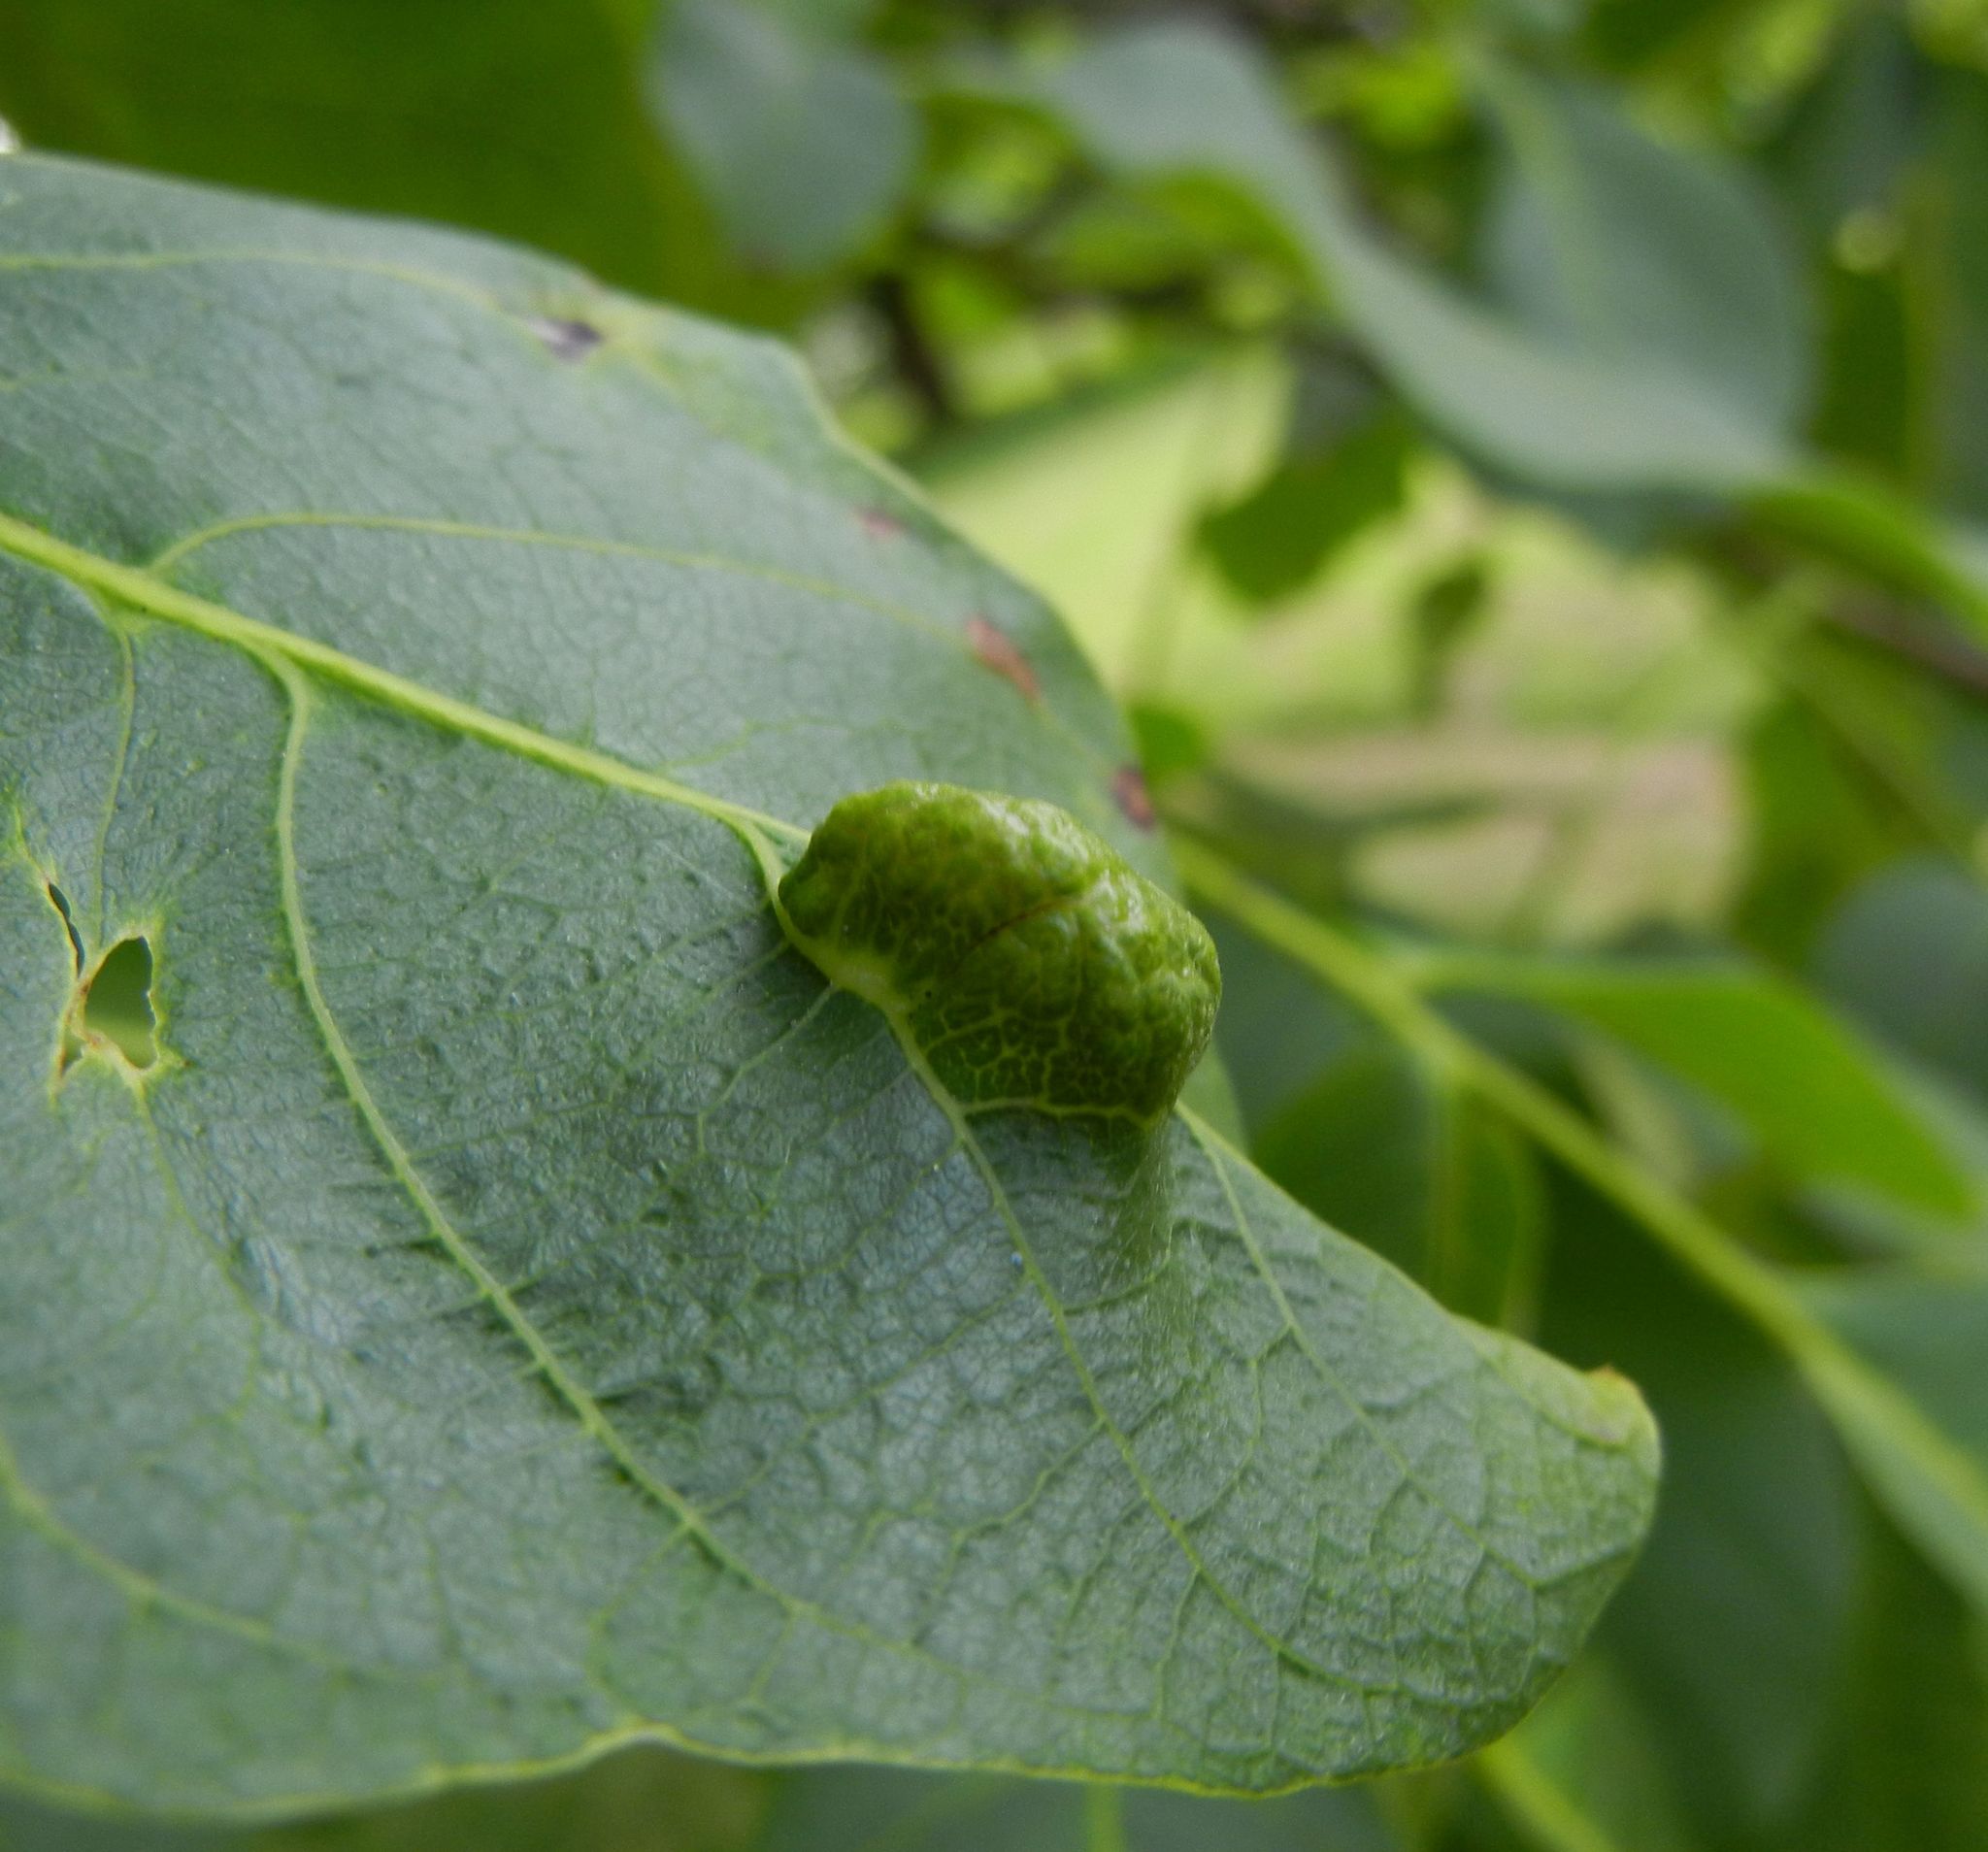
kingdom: Animalia
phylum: Arthropoda
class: Arachnida
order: Trombidiformes
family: Eriophyidae
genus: Aceria
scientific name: Aceria erinea
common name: Persian walnut erineum mite
